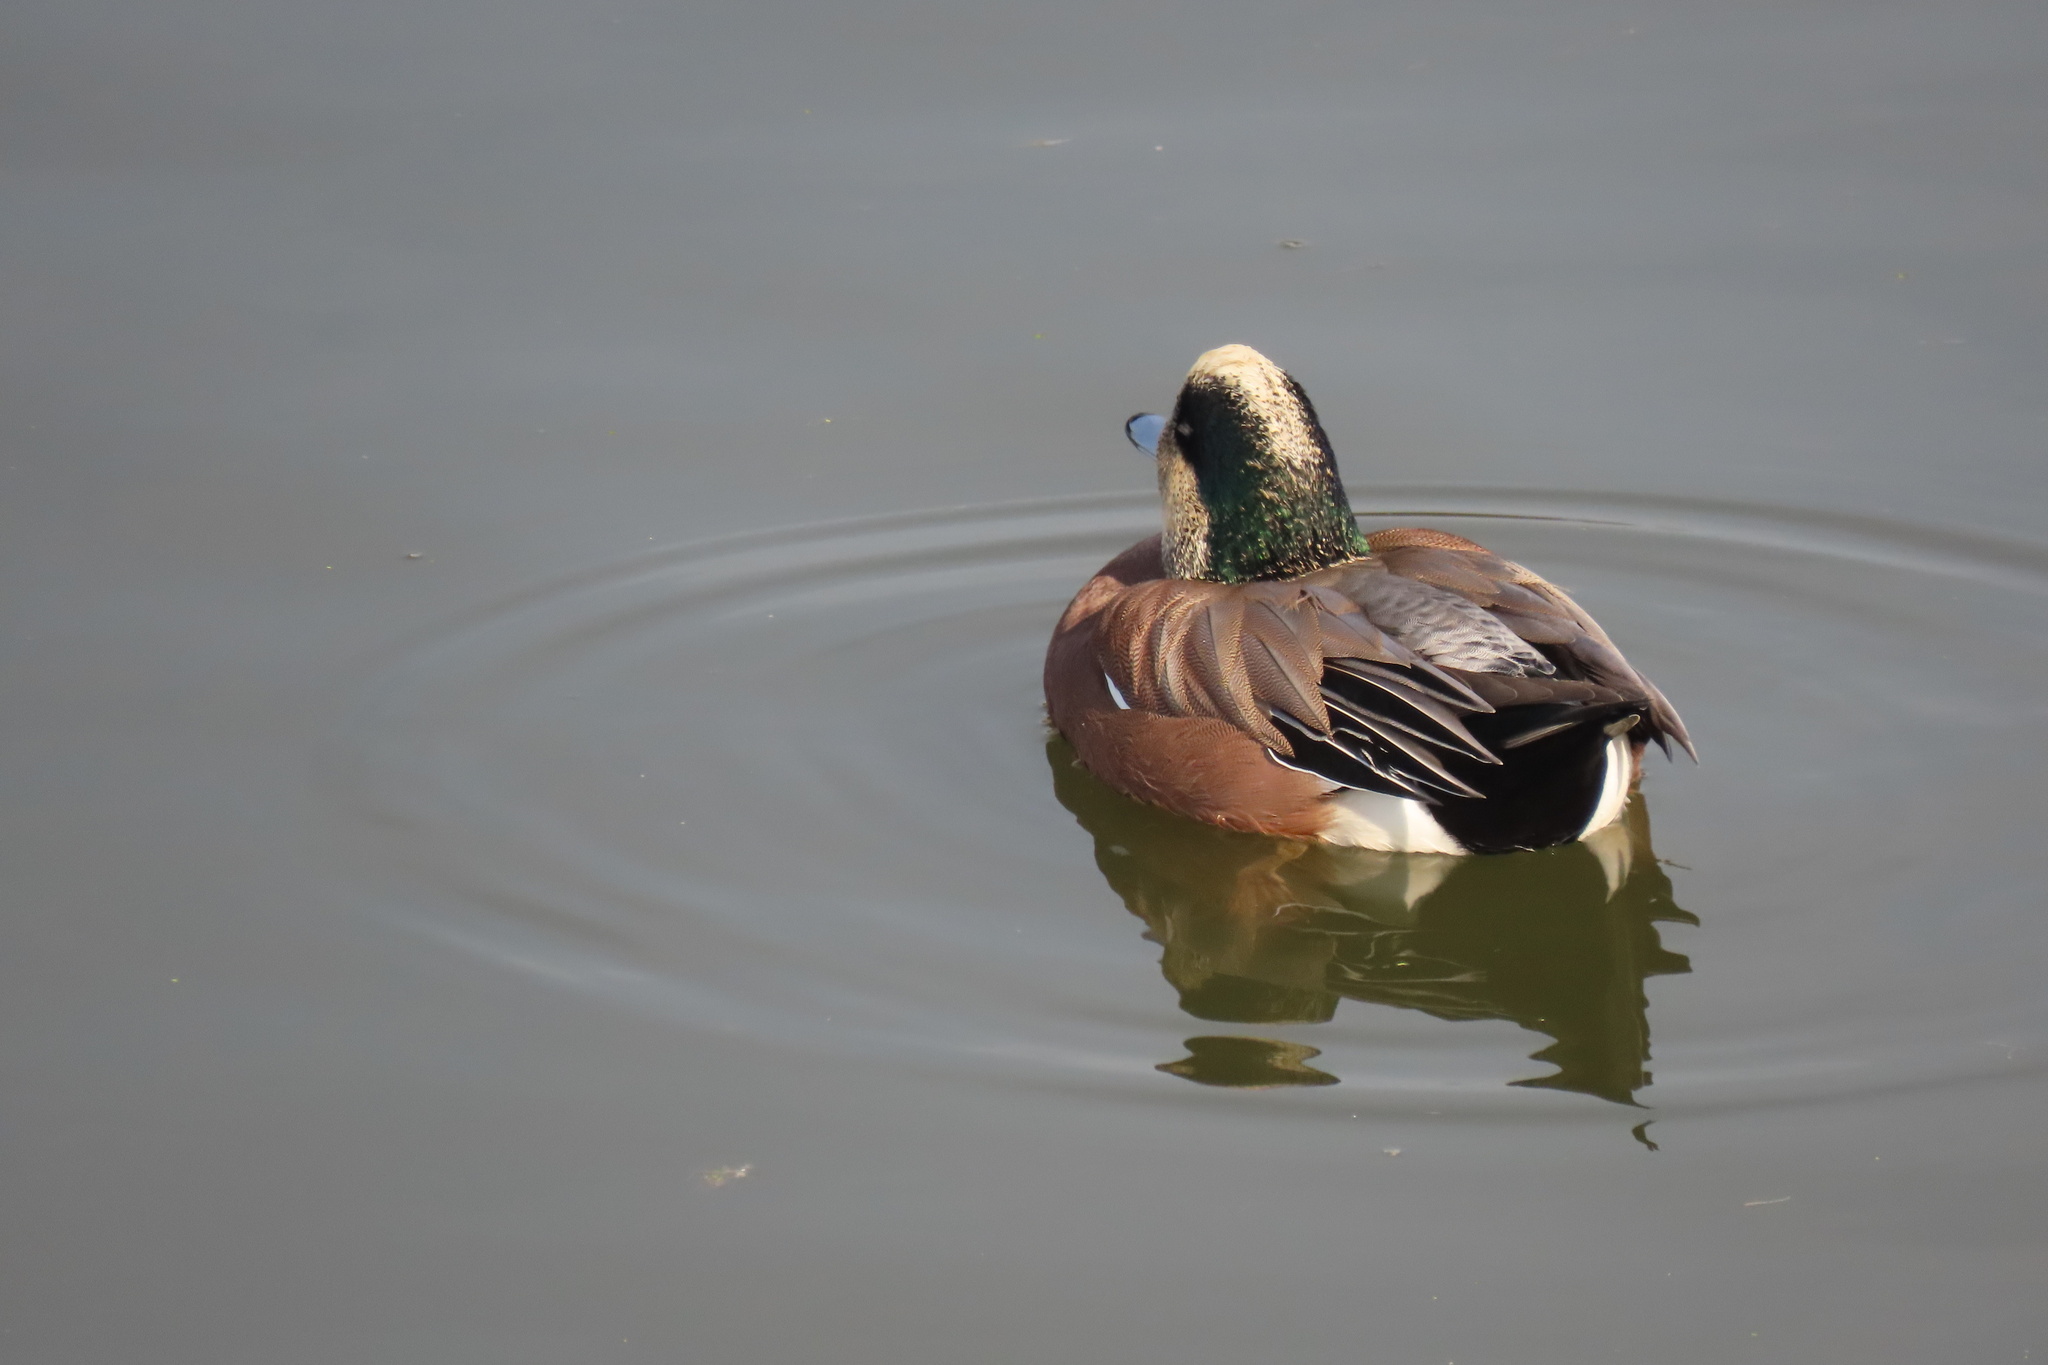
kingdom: Animalia
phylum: Chordata
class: Aves
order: Anseriformes
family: Anatidae
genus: Mareca
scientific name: Mareca americana
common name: American wigeon
